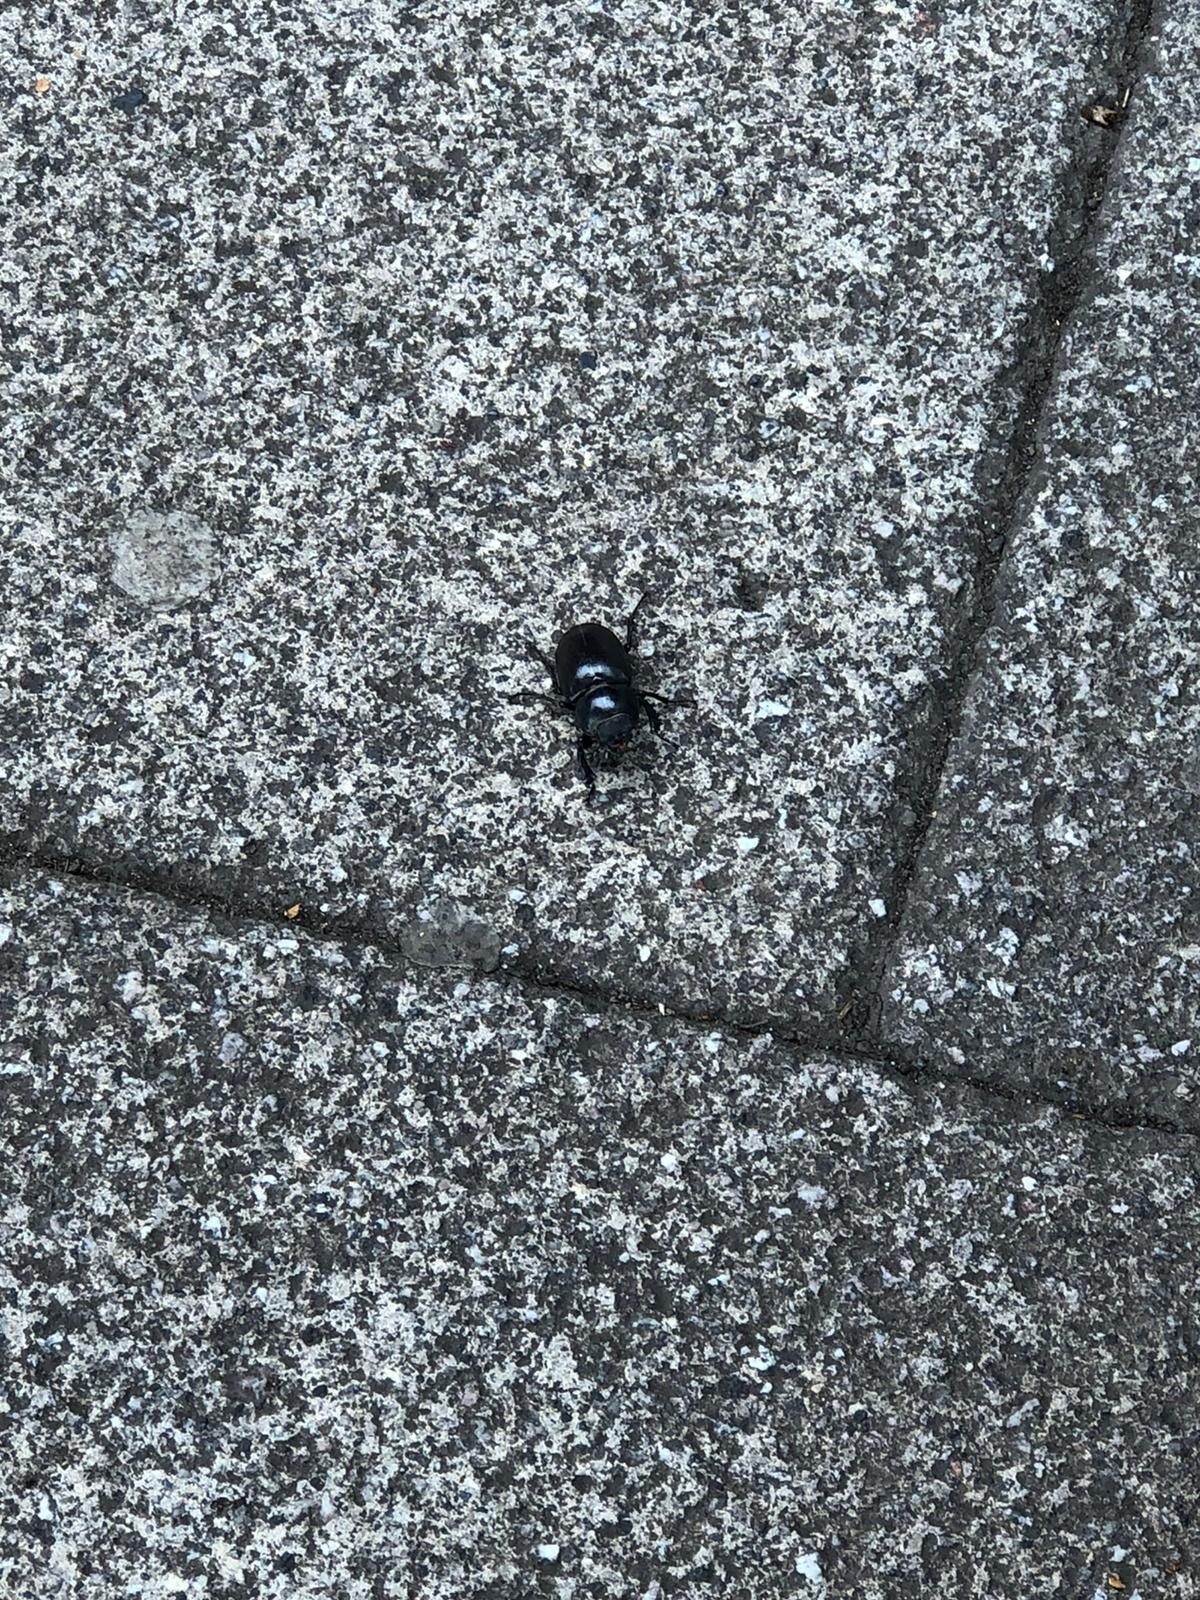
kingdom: Animalia
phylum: Arthropoda
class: Insecta
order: Coleoptera
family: Lucanidae
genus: Lucanus
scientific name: Lucanus cervus
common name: Stag beetle
